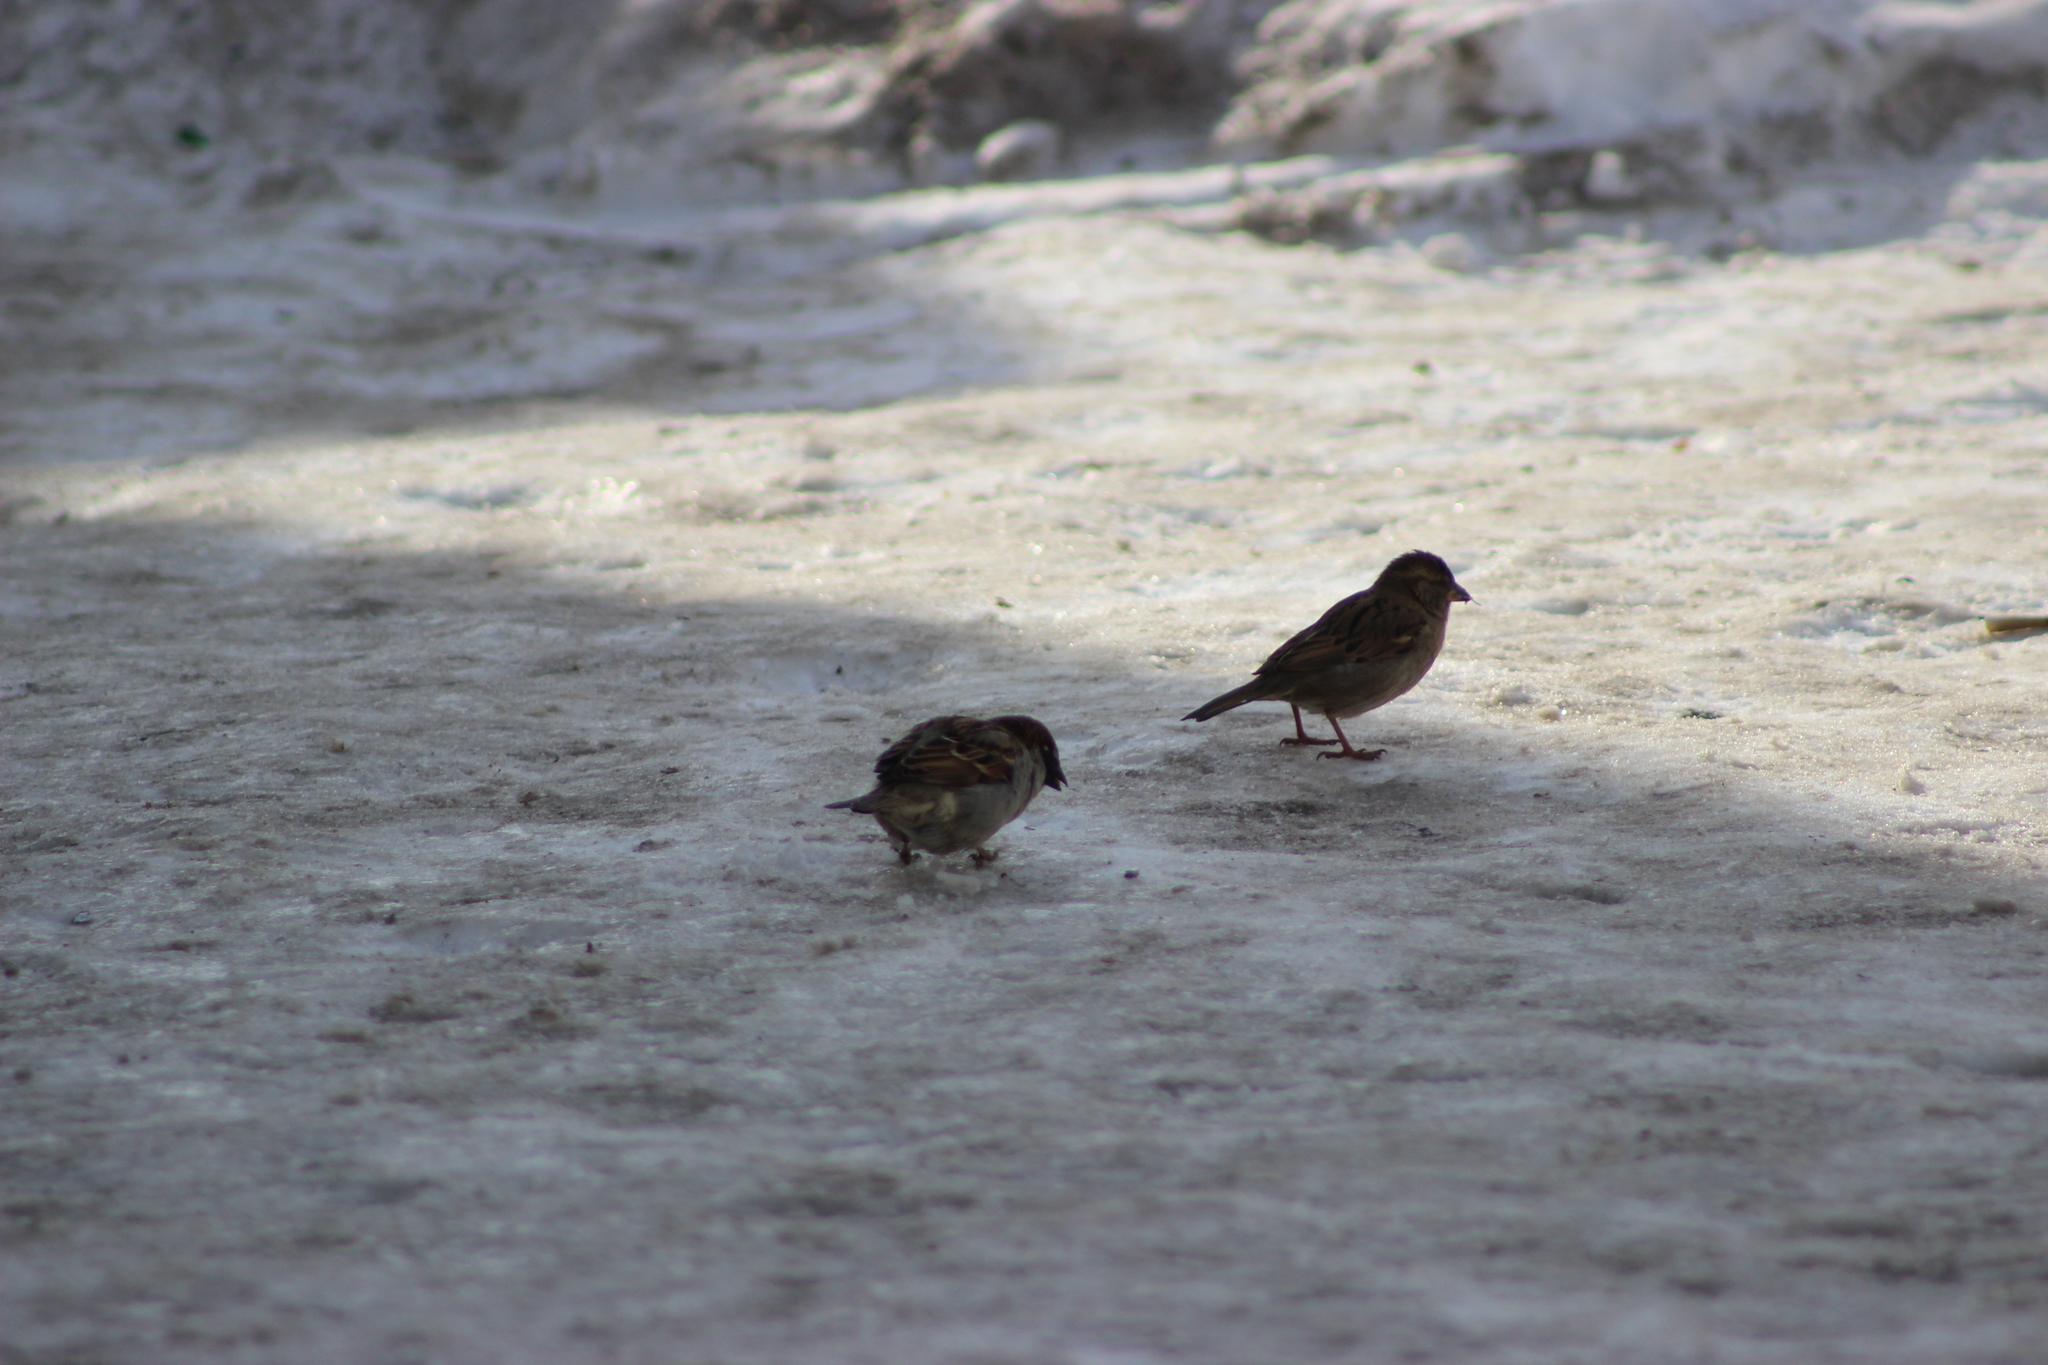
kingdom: Animalia
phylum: Chordata
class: Aves
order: Passeriformes
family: Passeridae
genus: Passer
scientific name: Passer montanus
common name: Eurasian tree sparrow
